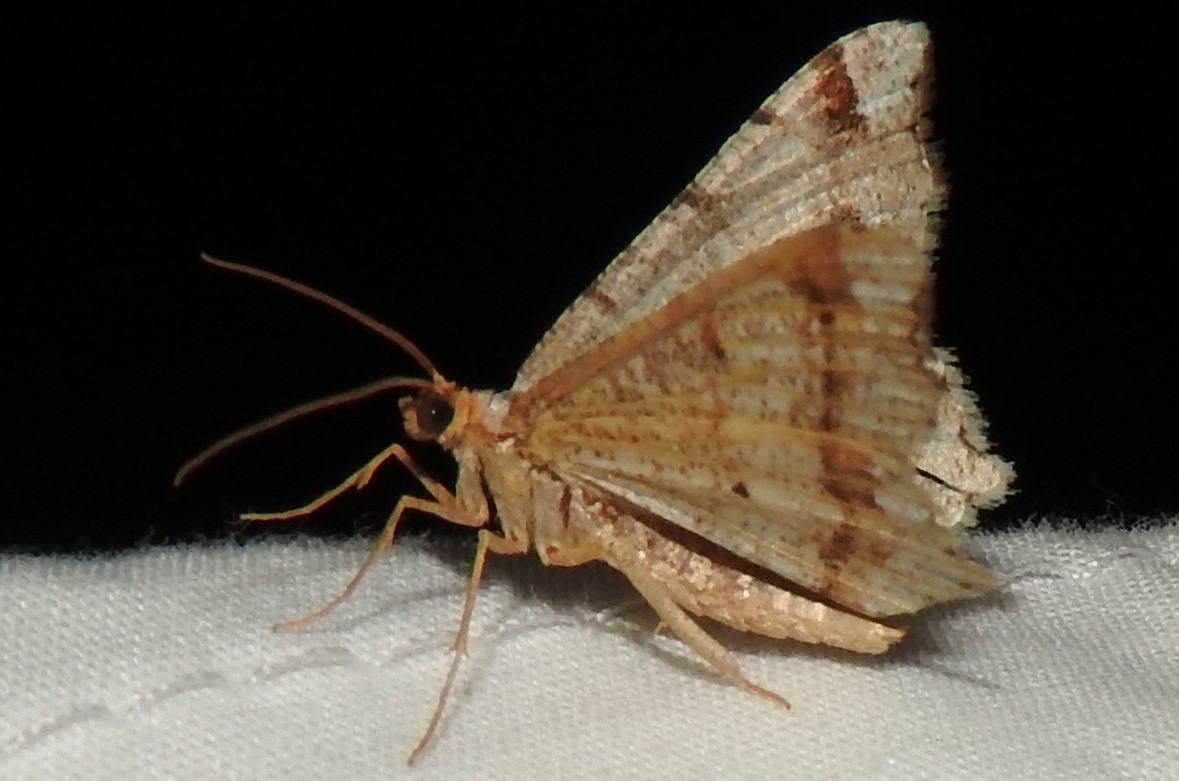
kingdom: Animalia
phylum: Arthropoda
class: Insecta
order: Lepidoptera
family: Geometridae
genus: Macaria
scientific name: Macaria bisignata
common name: Red-headed inchworm
